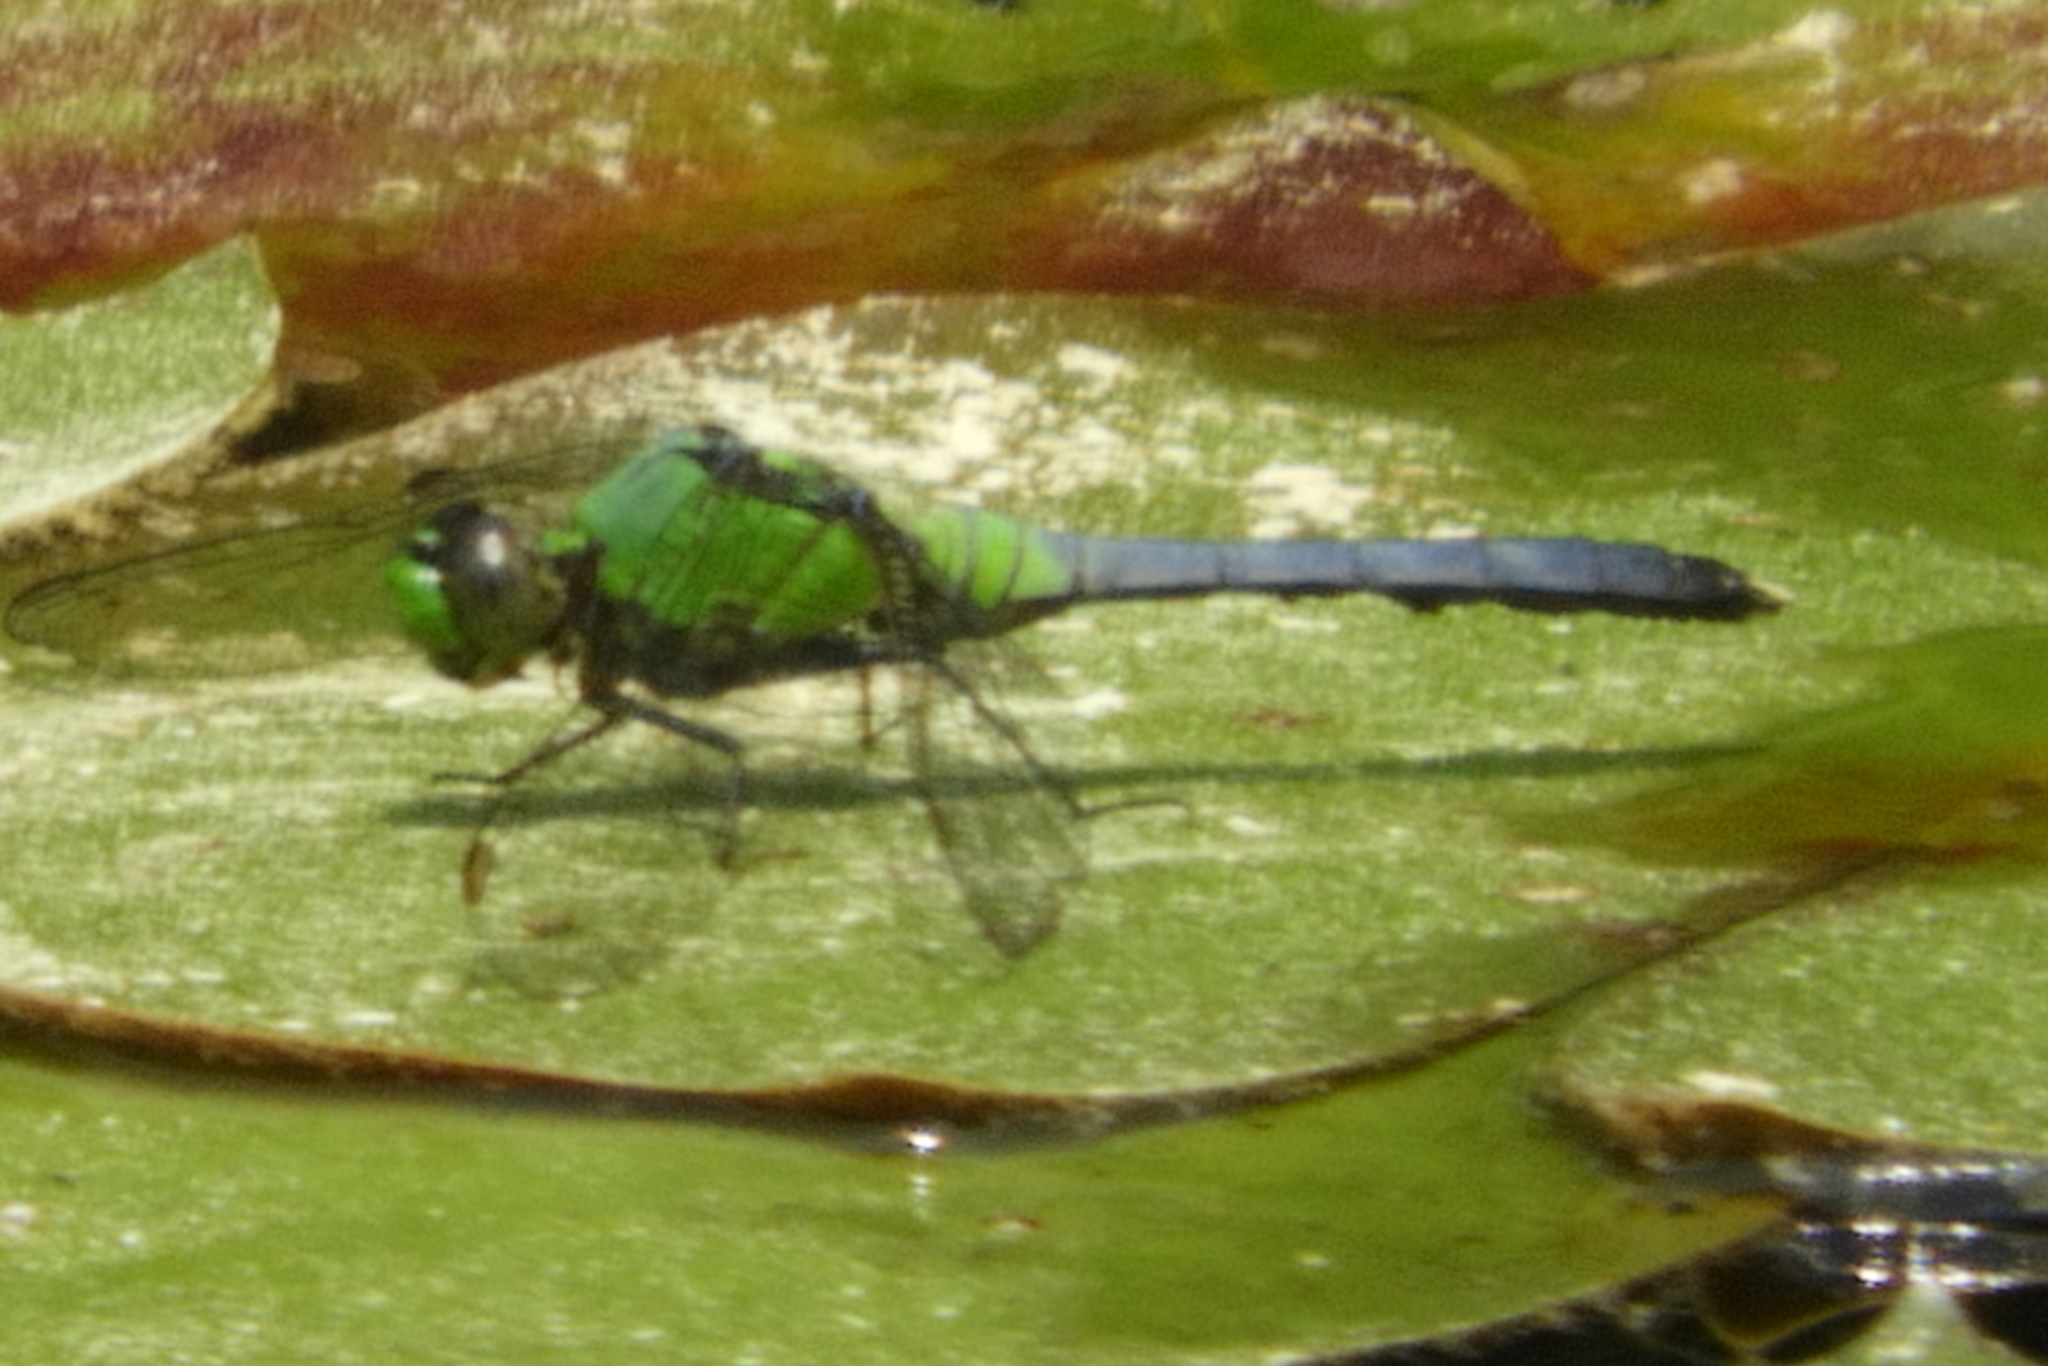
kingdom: Animalia
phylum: Arthropoda
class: Insecta
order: Odonata
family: Libellulidae
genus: Erythemis
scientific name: Erythemis simplicicollis
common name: Eastern pondhawk
